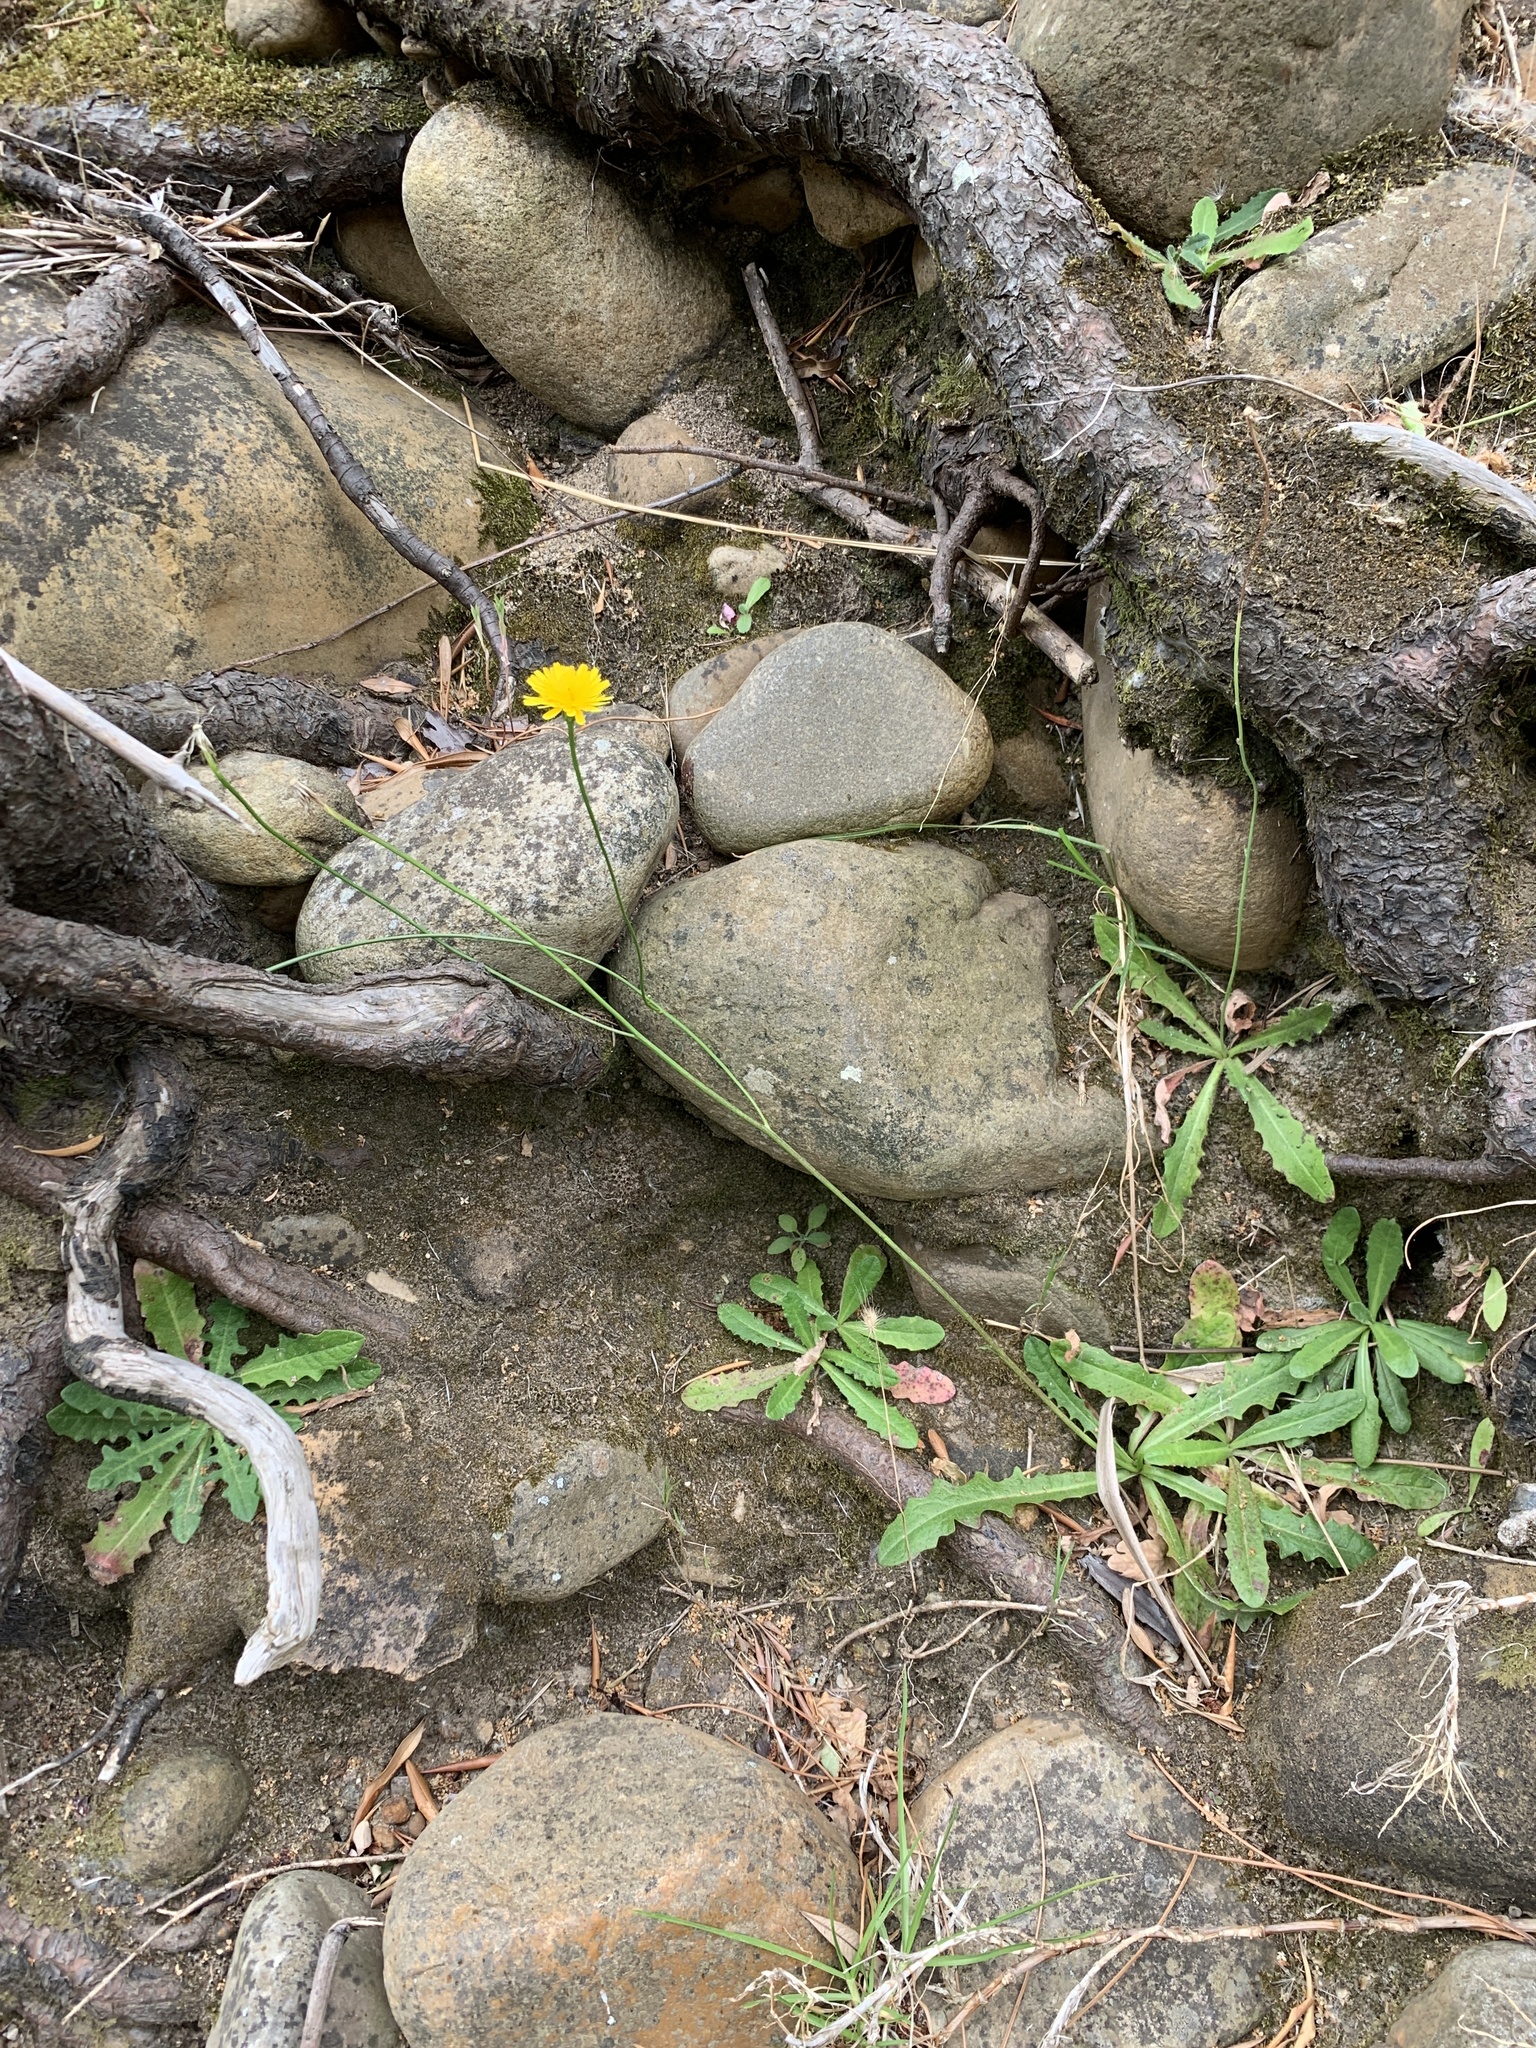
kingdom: Plantae
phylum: Tracheophyta
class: Magnoliopsida
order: Asterales
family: Asteraceae
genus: Hypochaeris
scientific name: Hypochaeris radicata
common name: Flatweed
